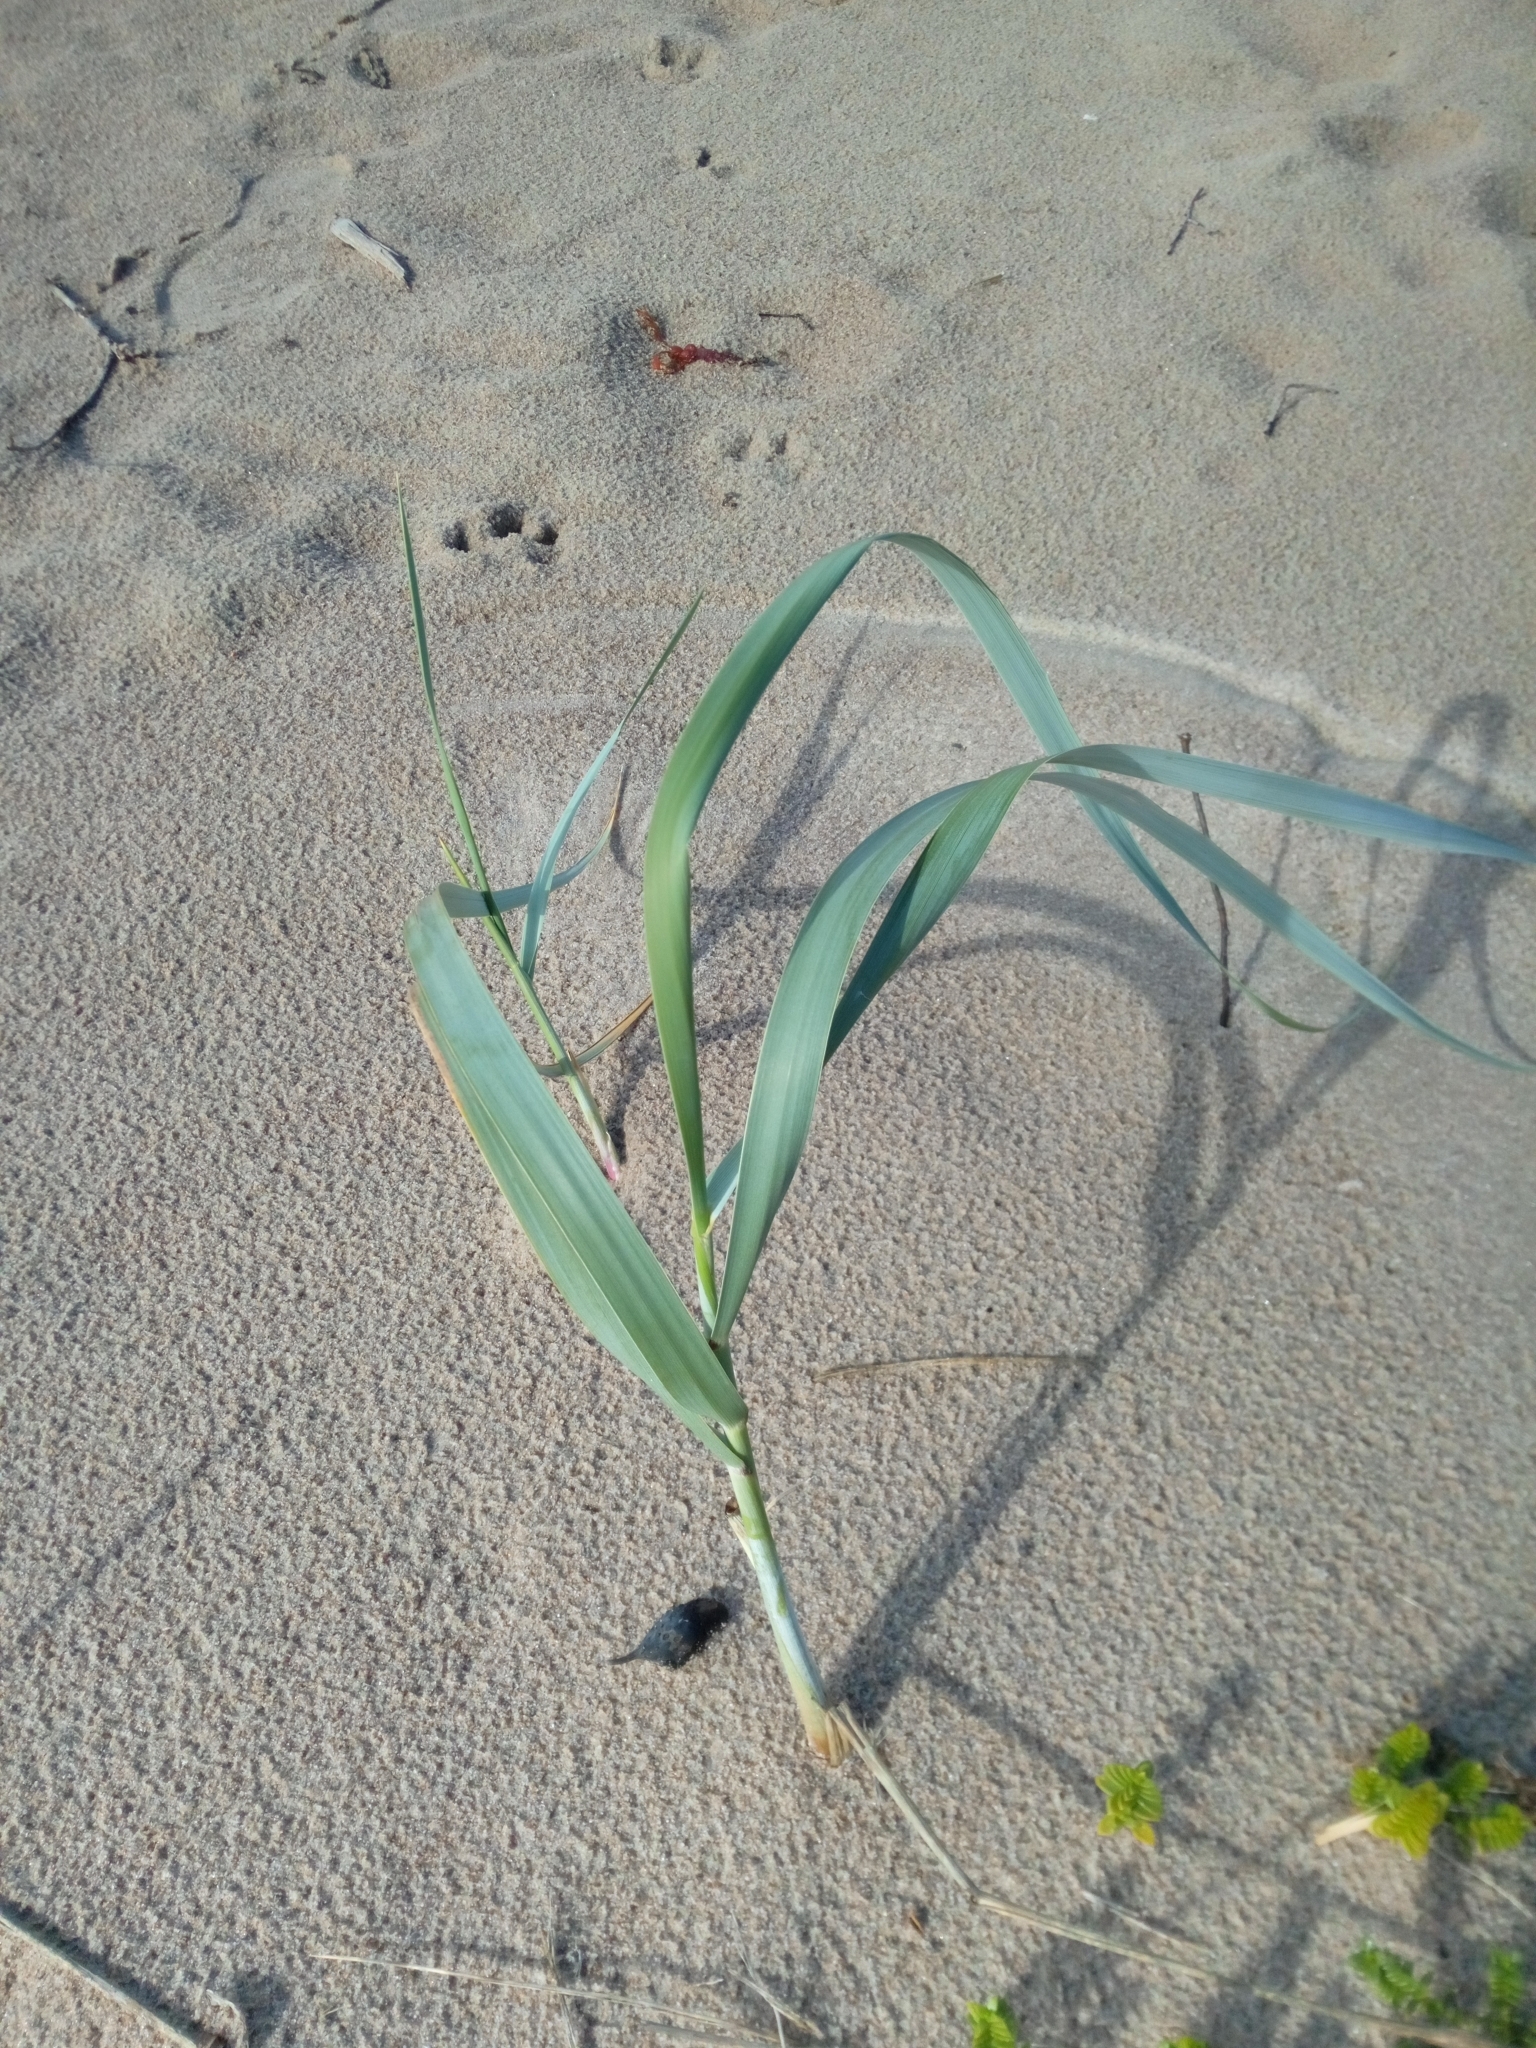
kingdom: Plantae
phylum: Tracheophyta
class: Liliopsida
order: Poales
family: Poaceae
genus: Leymus
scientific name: Leymus arenarius
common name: Lyme-grass
